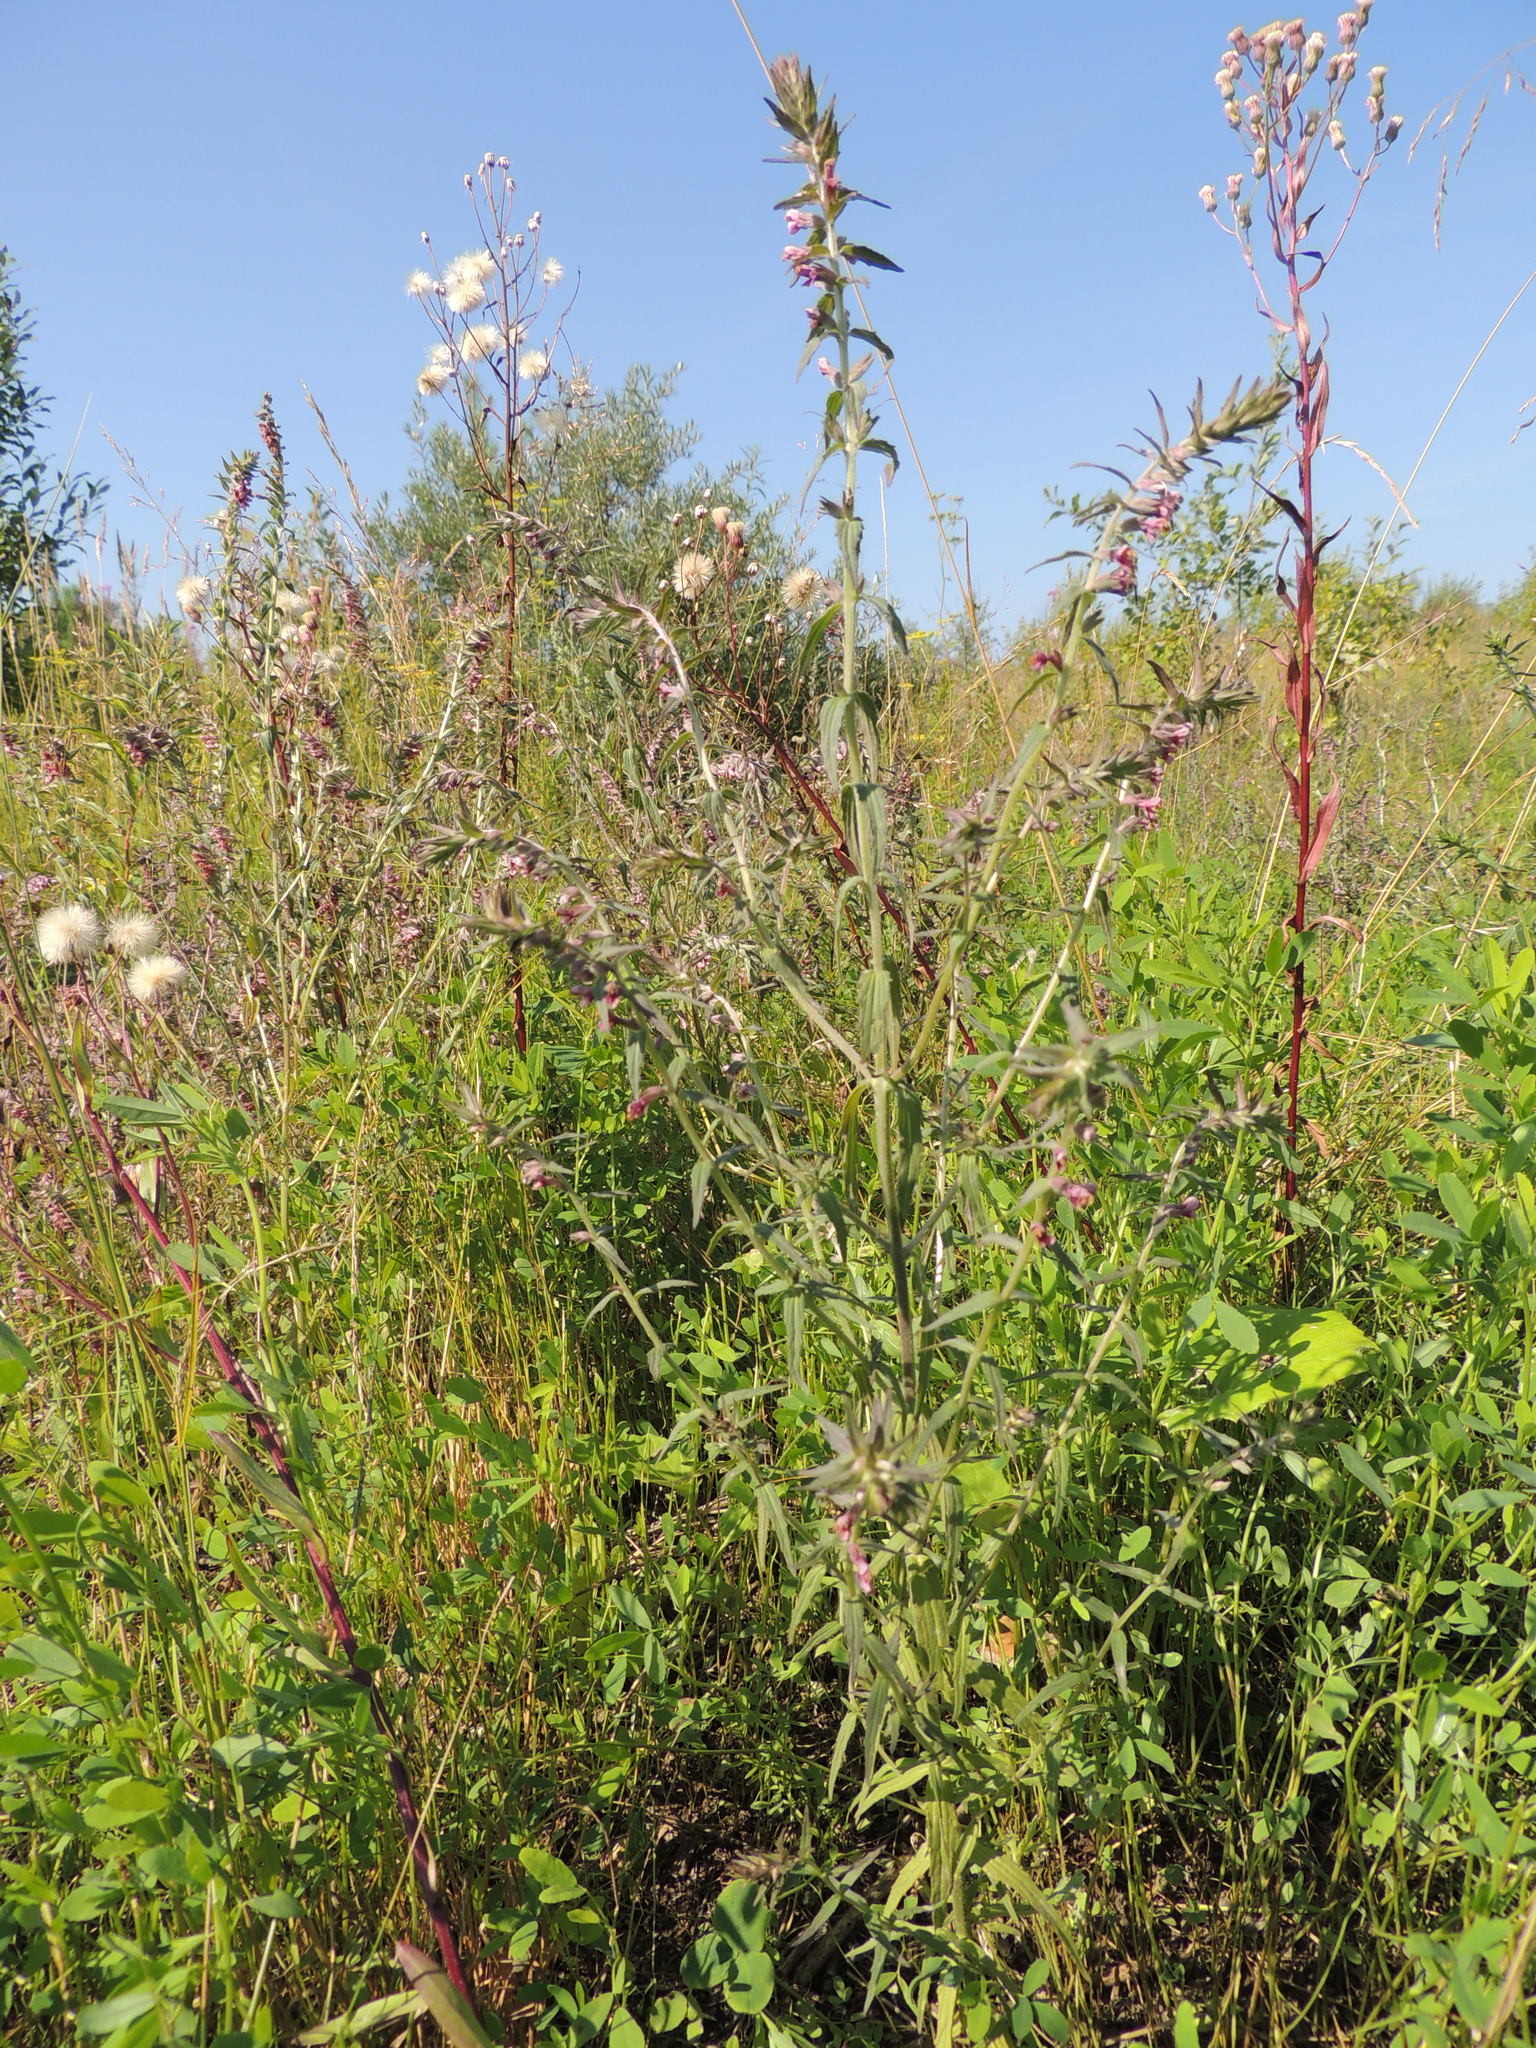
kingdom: Plantae
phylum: Tracheophyta
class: Magnoliopsida
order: Lamiales
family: Orobanchaceae
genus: Odontites
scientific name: Odontites vulgaris
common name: Broomrape
